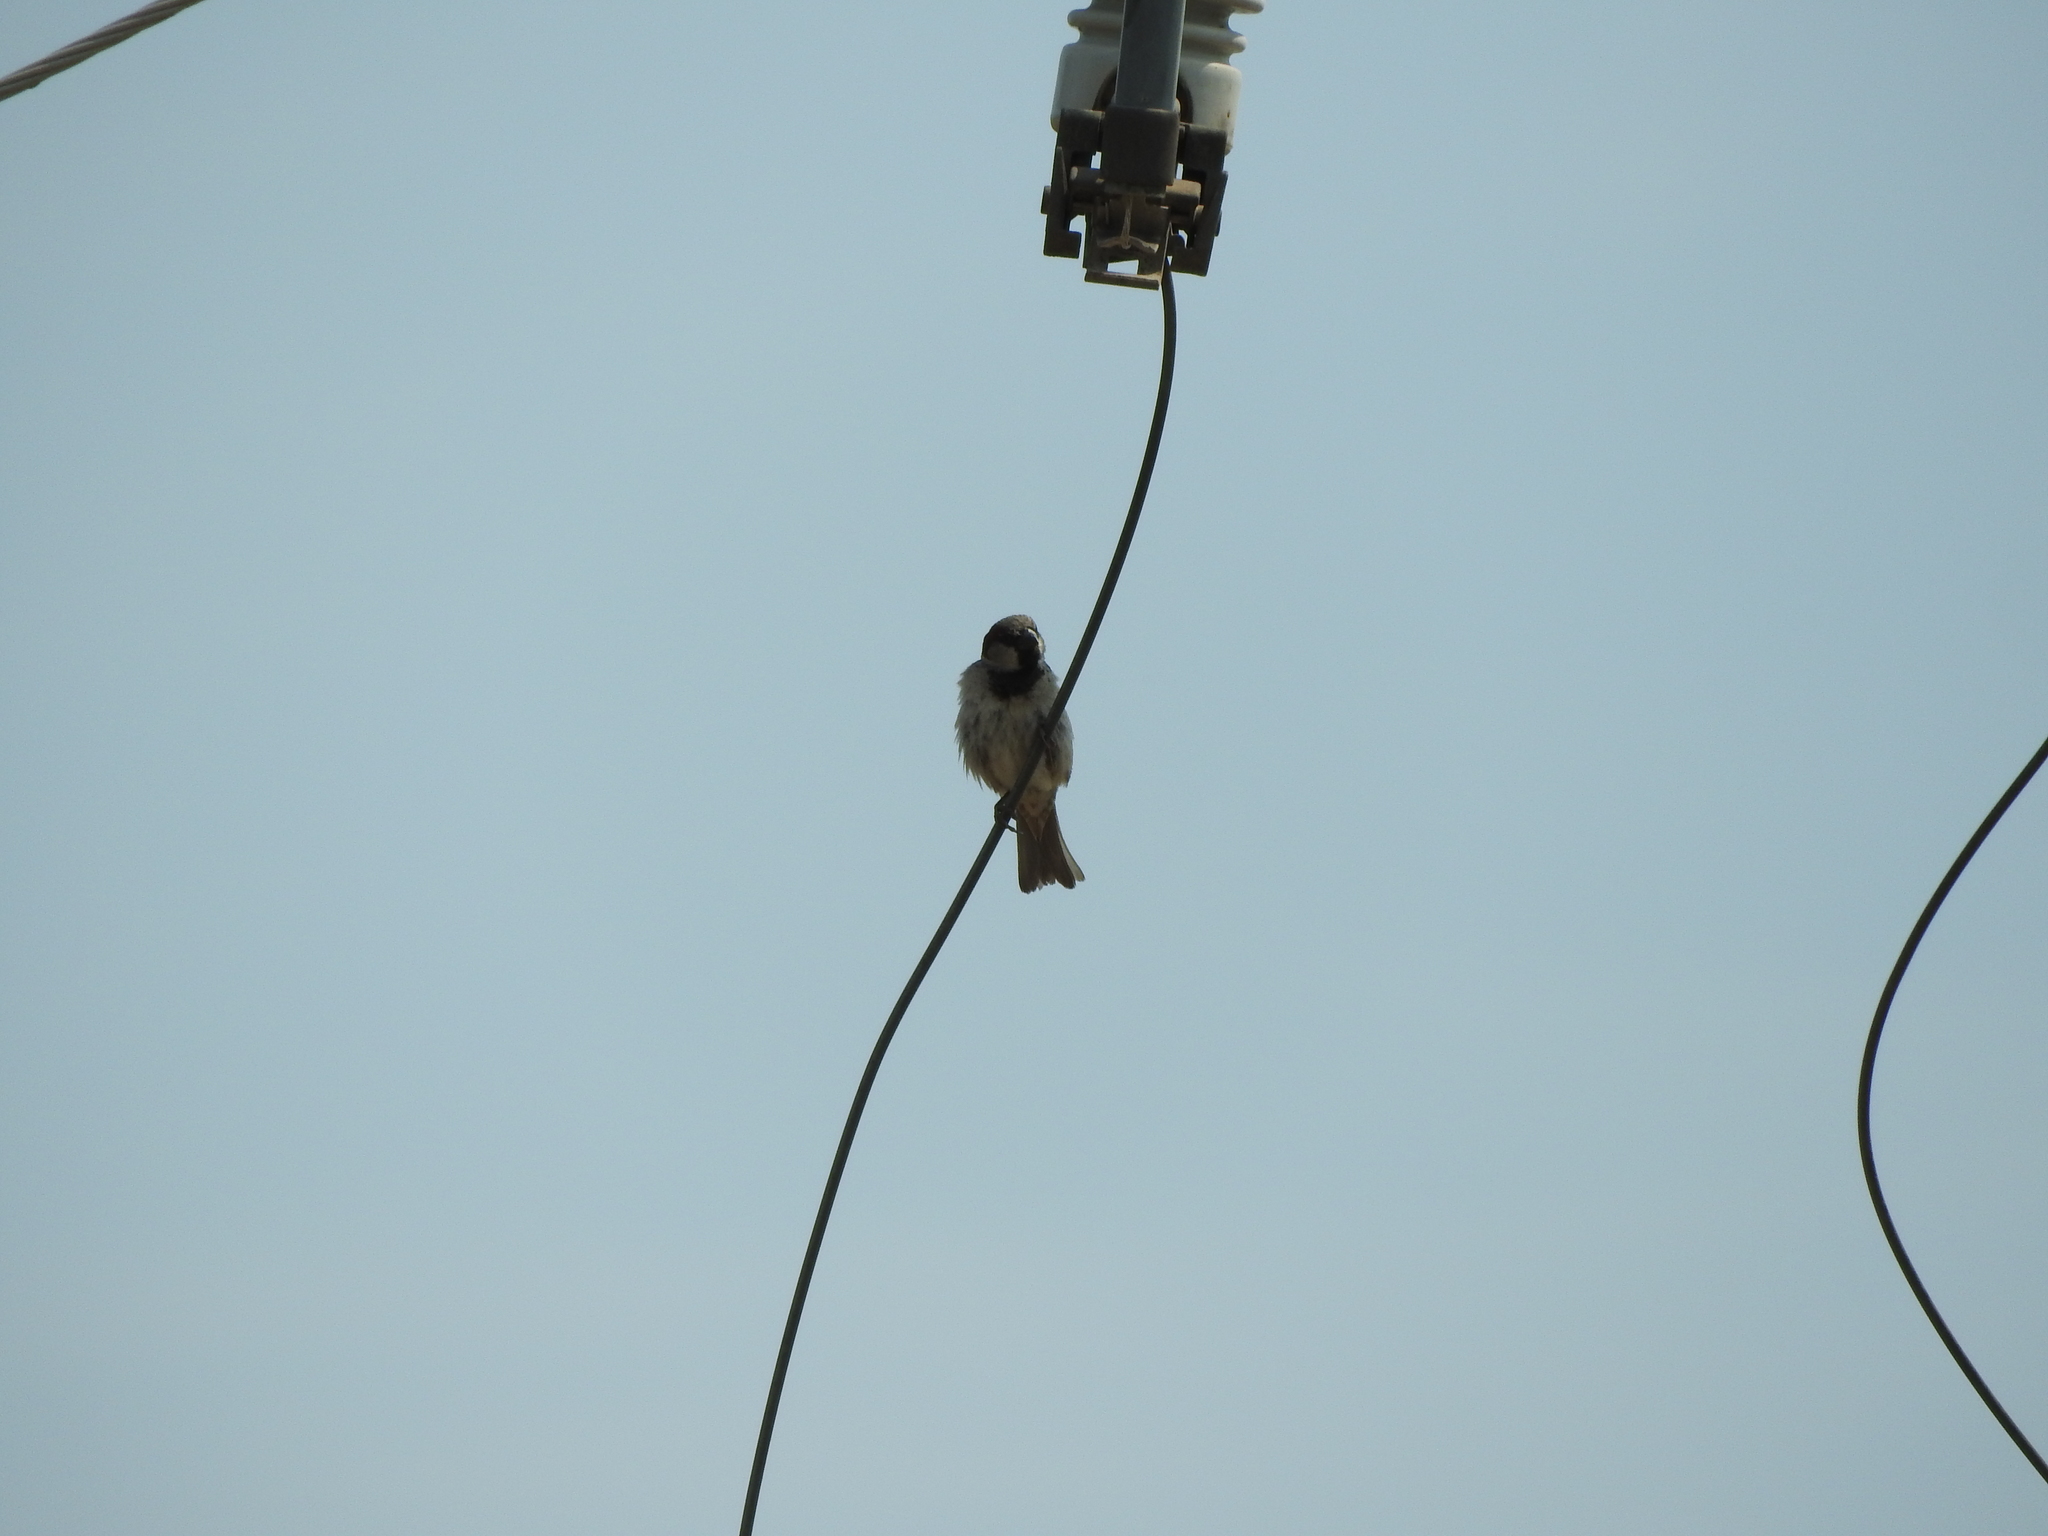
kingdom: Animalia
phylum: Chordata
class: Aves
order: Passeriformes
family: Passeridae
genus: Passer
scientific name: Passer domesticus
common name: House sparrow
